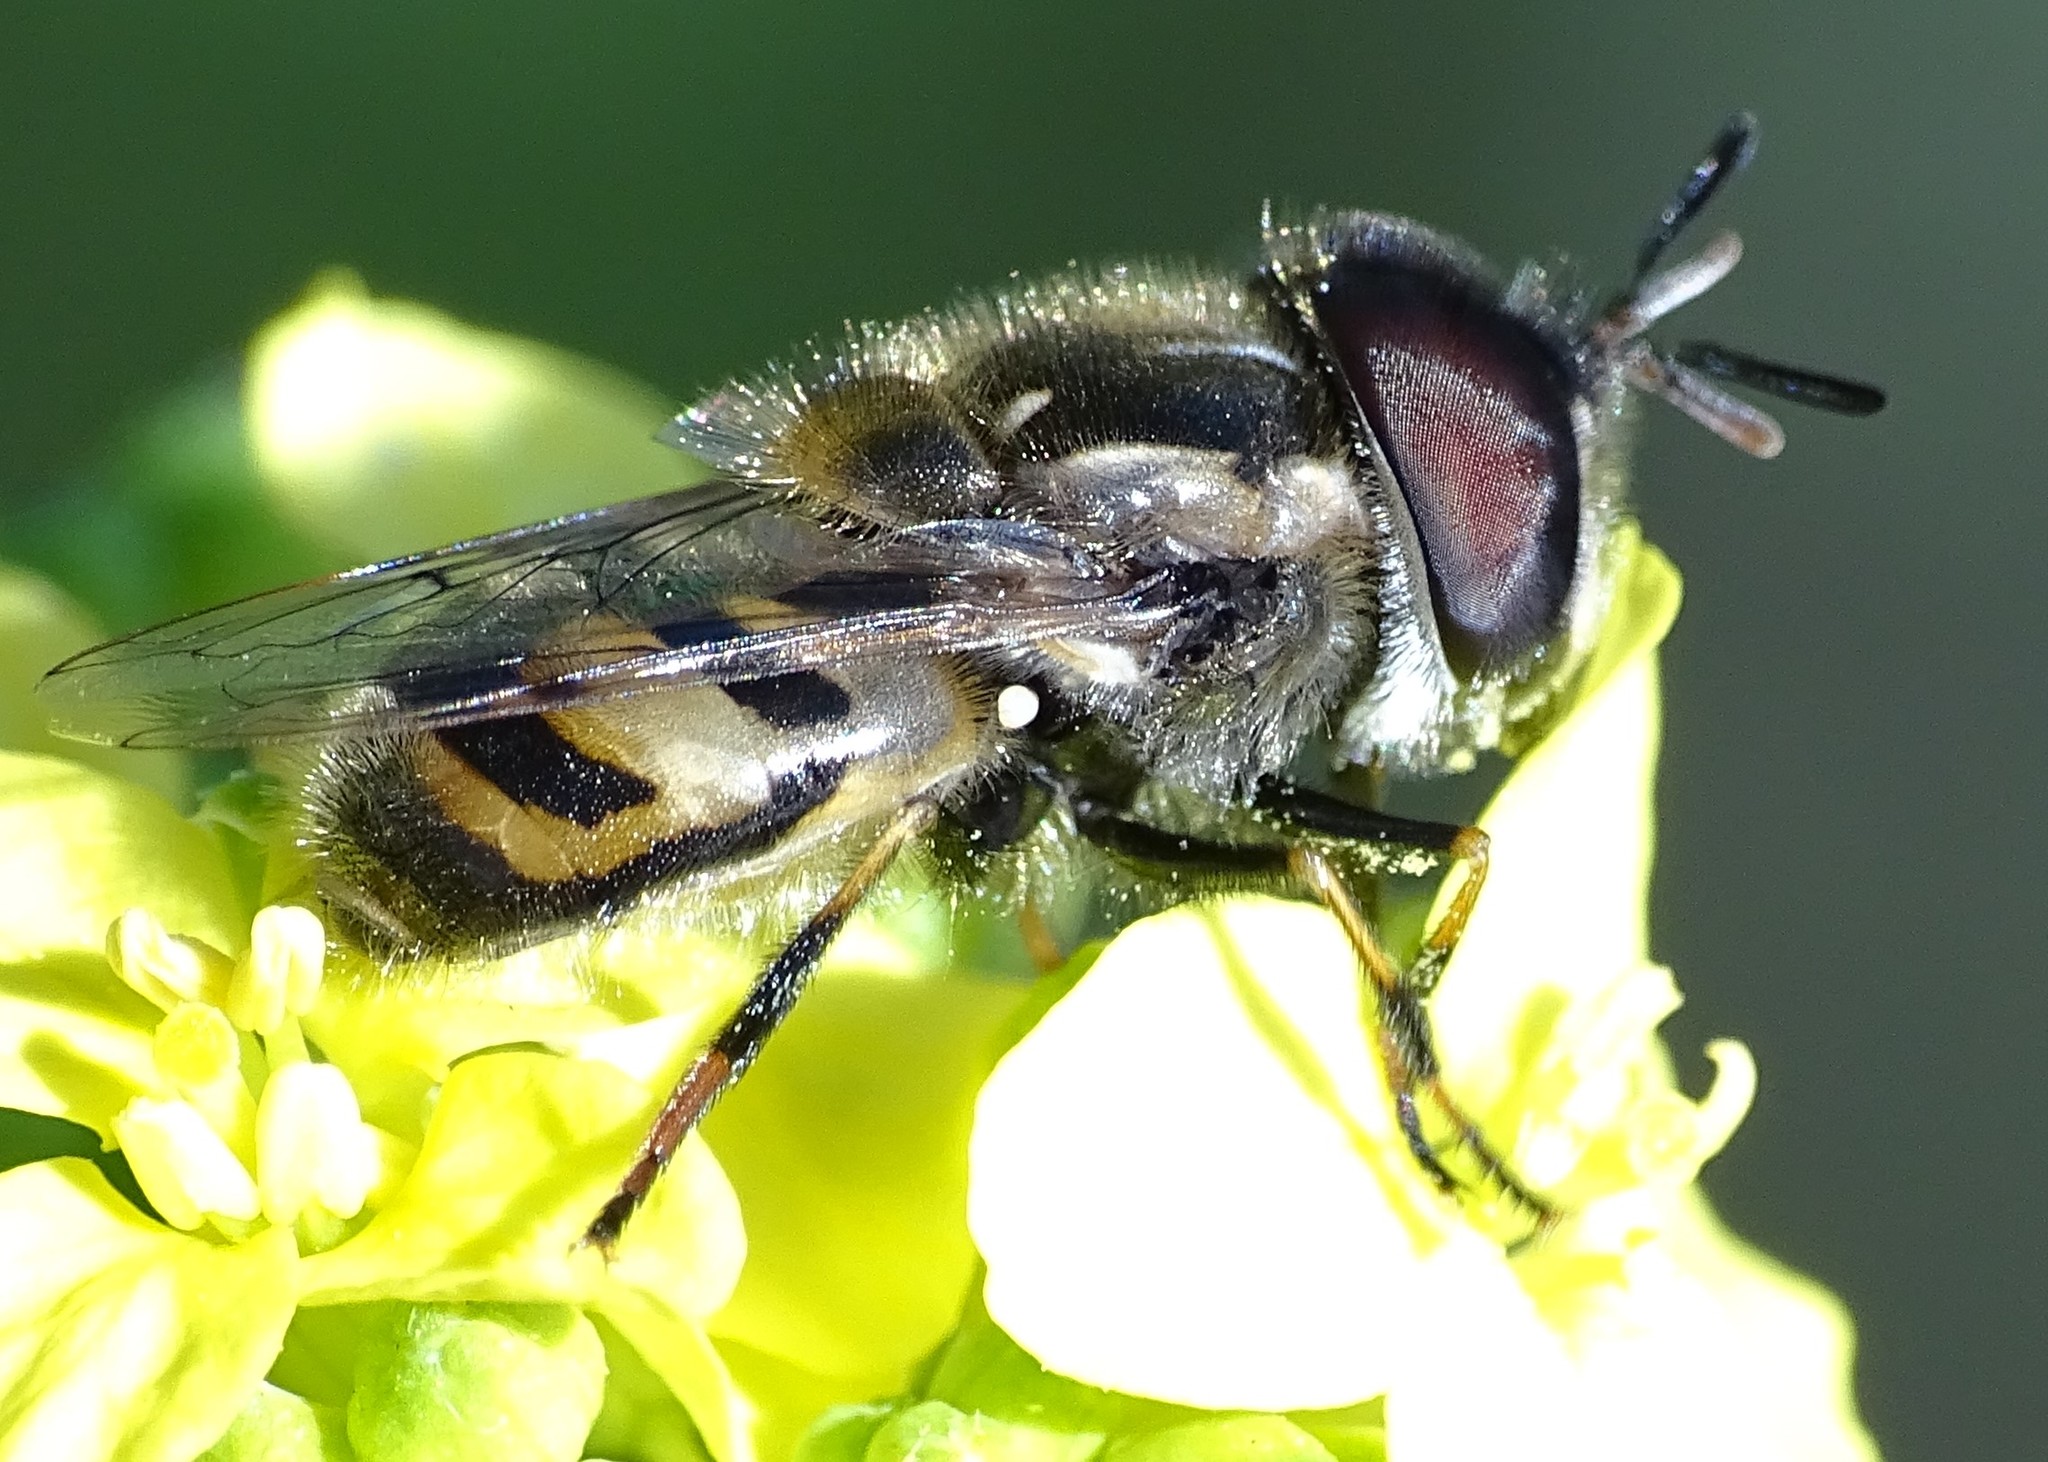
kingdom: Animalia
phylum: Arthropoda
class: Insecta
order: Diptera
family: Syrphidae
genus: Copestylum
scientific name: Copestylum marginatum
